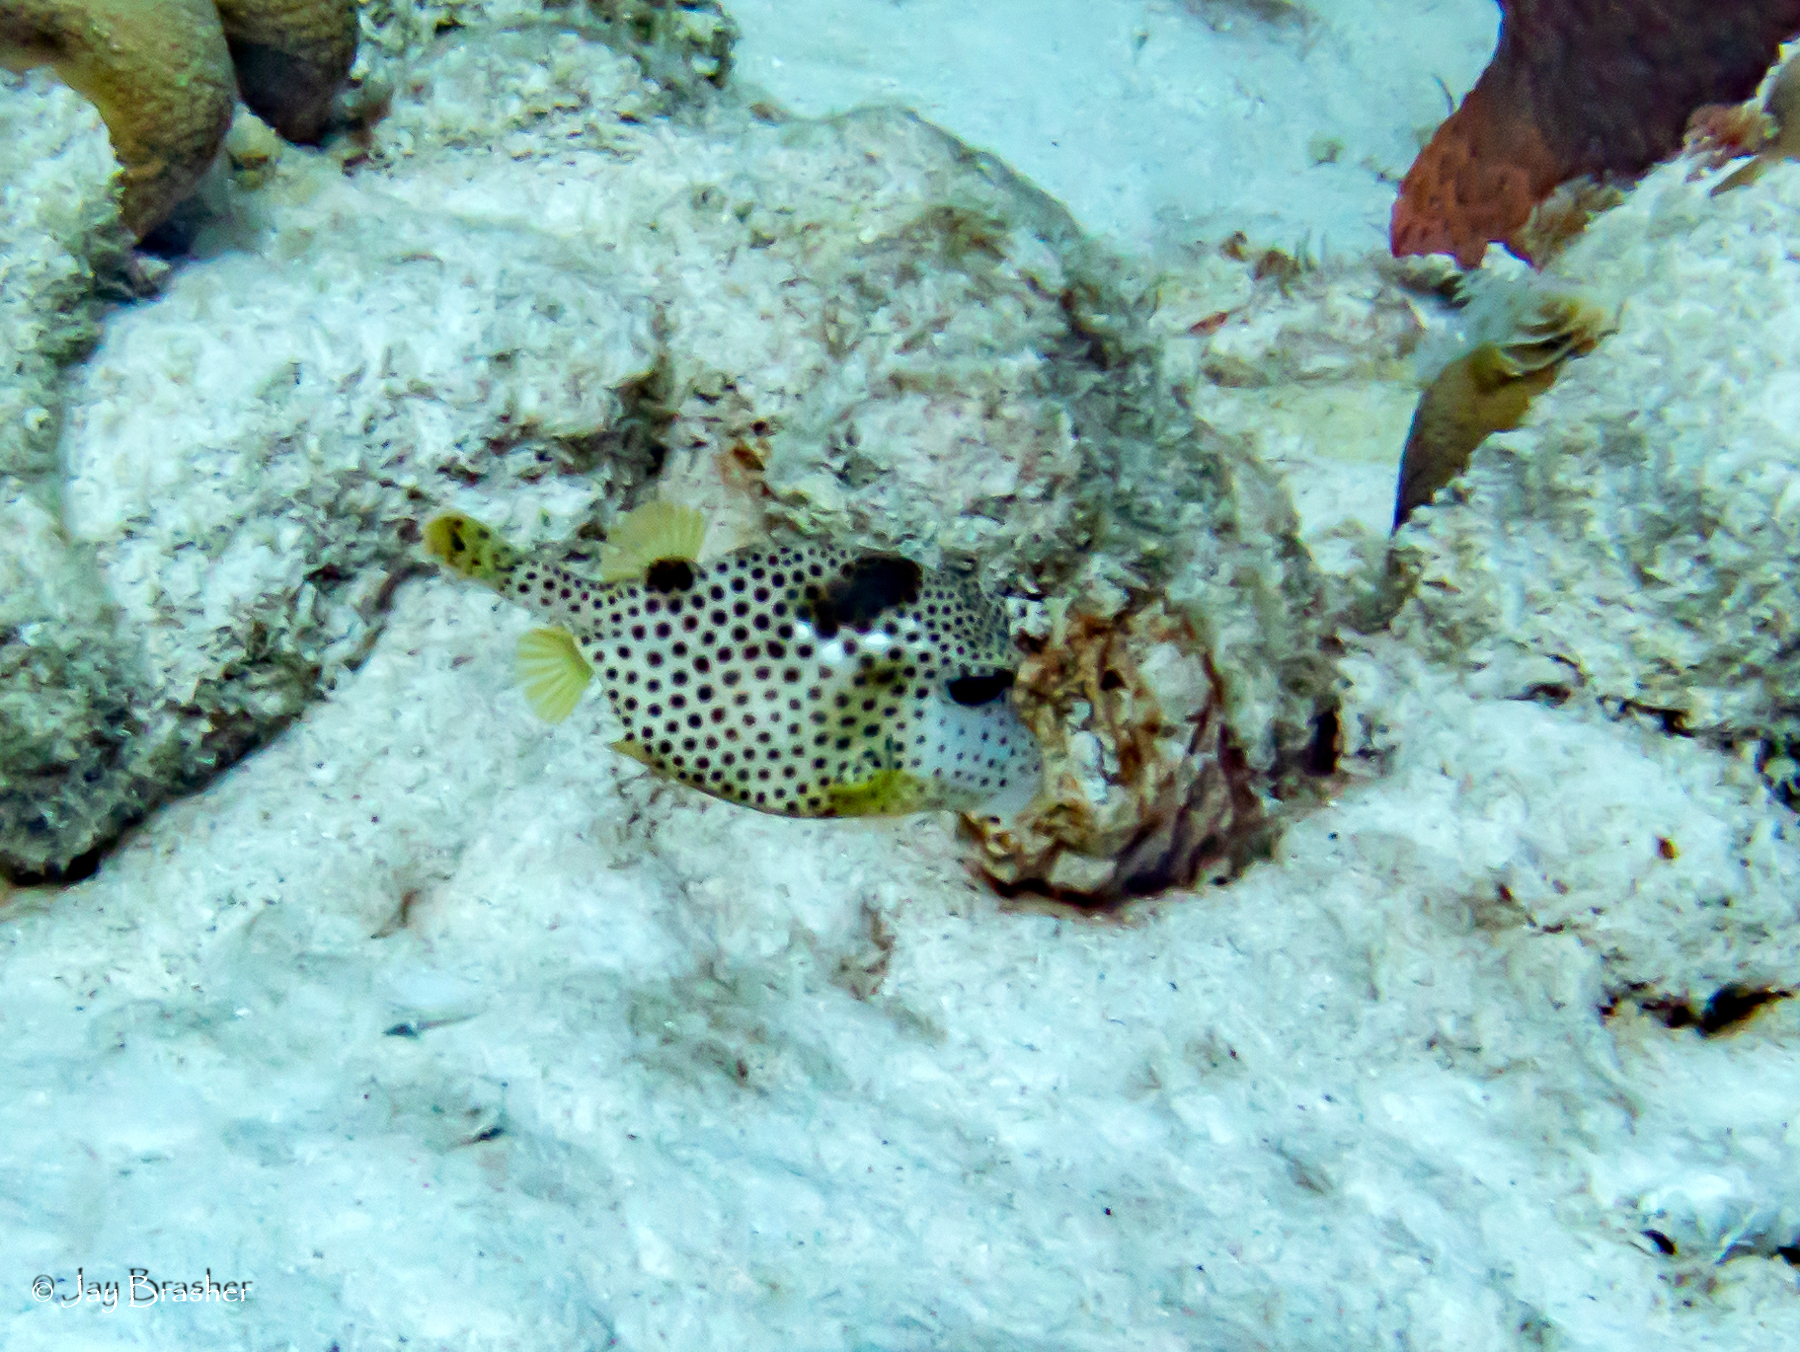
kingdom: Animalia
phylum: Chordata
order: Tetraodontiformes
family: Ostraciidae
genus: Lactophrys
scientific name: Lactophrys bicaudalis
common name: Spotted trunkfish
